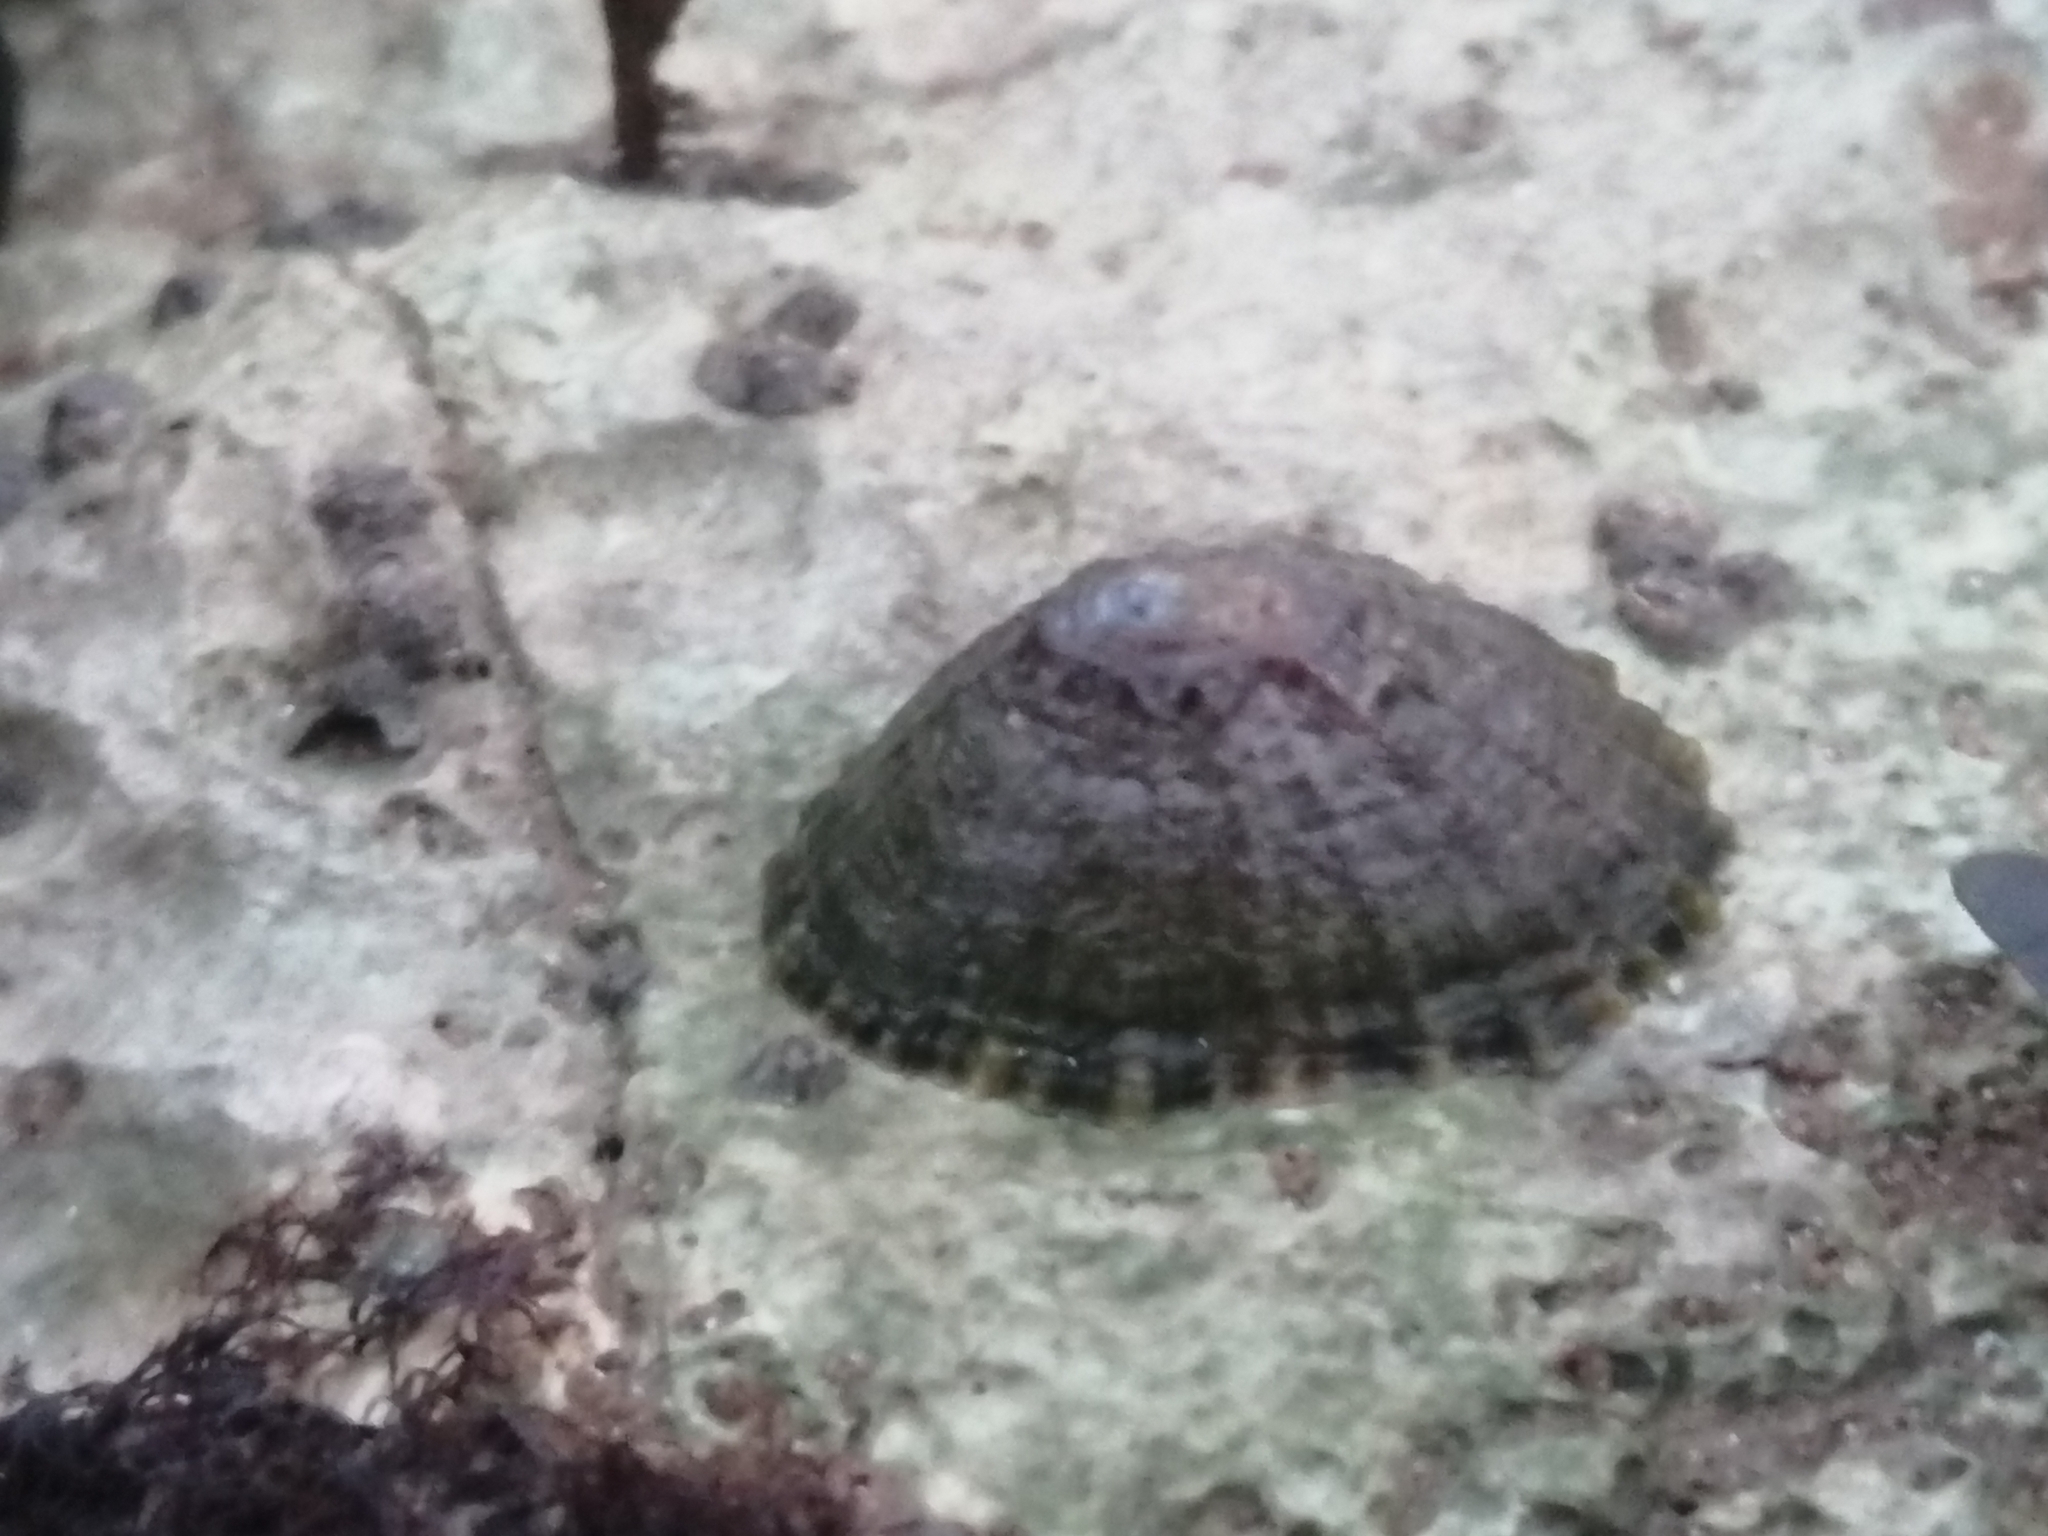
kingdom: Animalia
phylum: Mollusca
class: Gastropoda
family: Patellidae
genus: Patella
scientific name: Patella vulgata
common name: Common limpet
